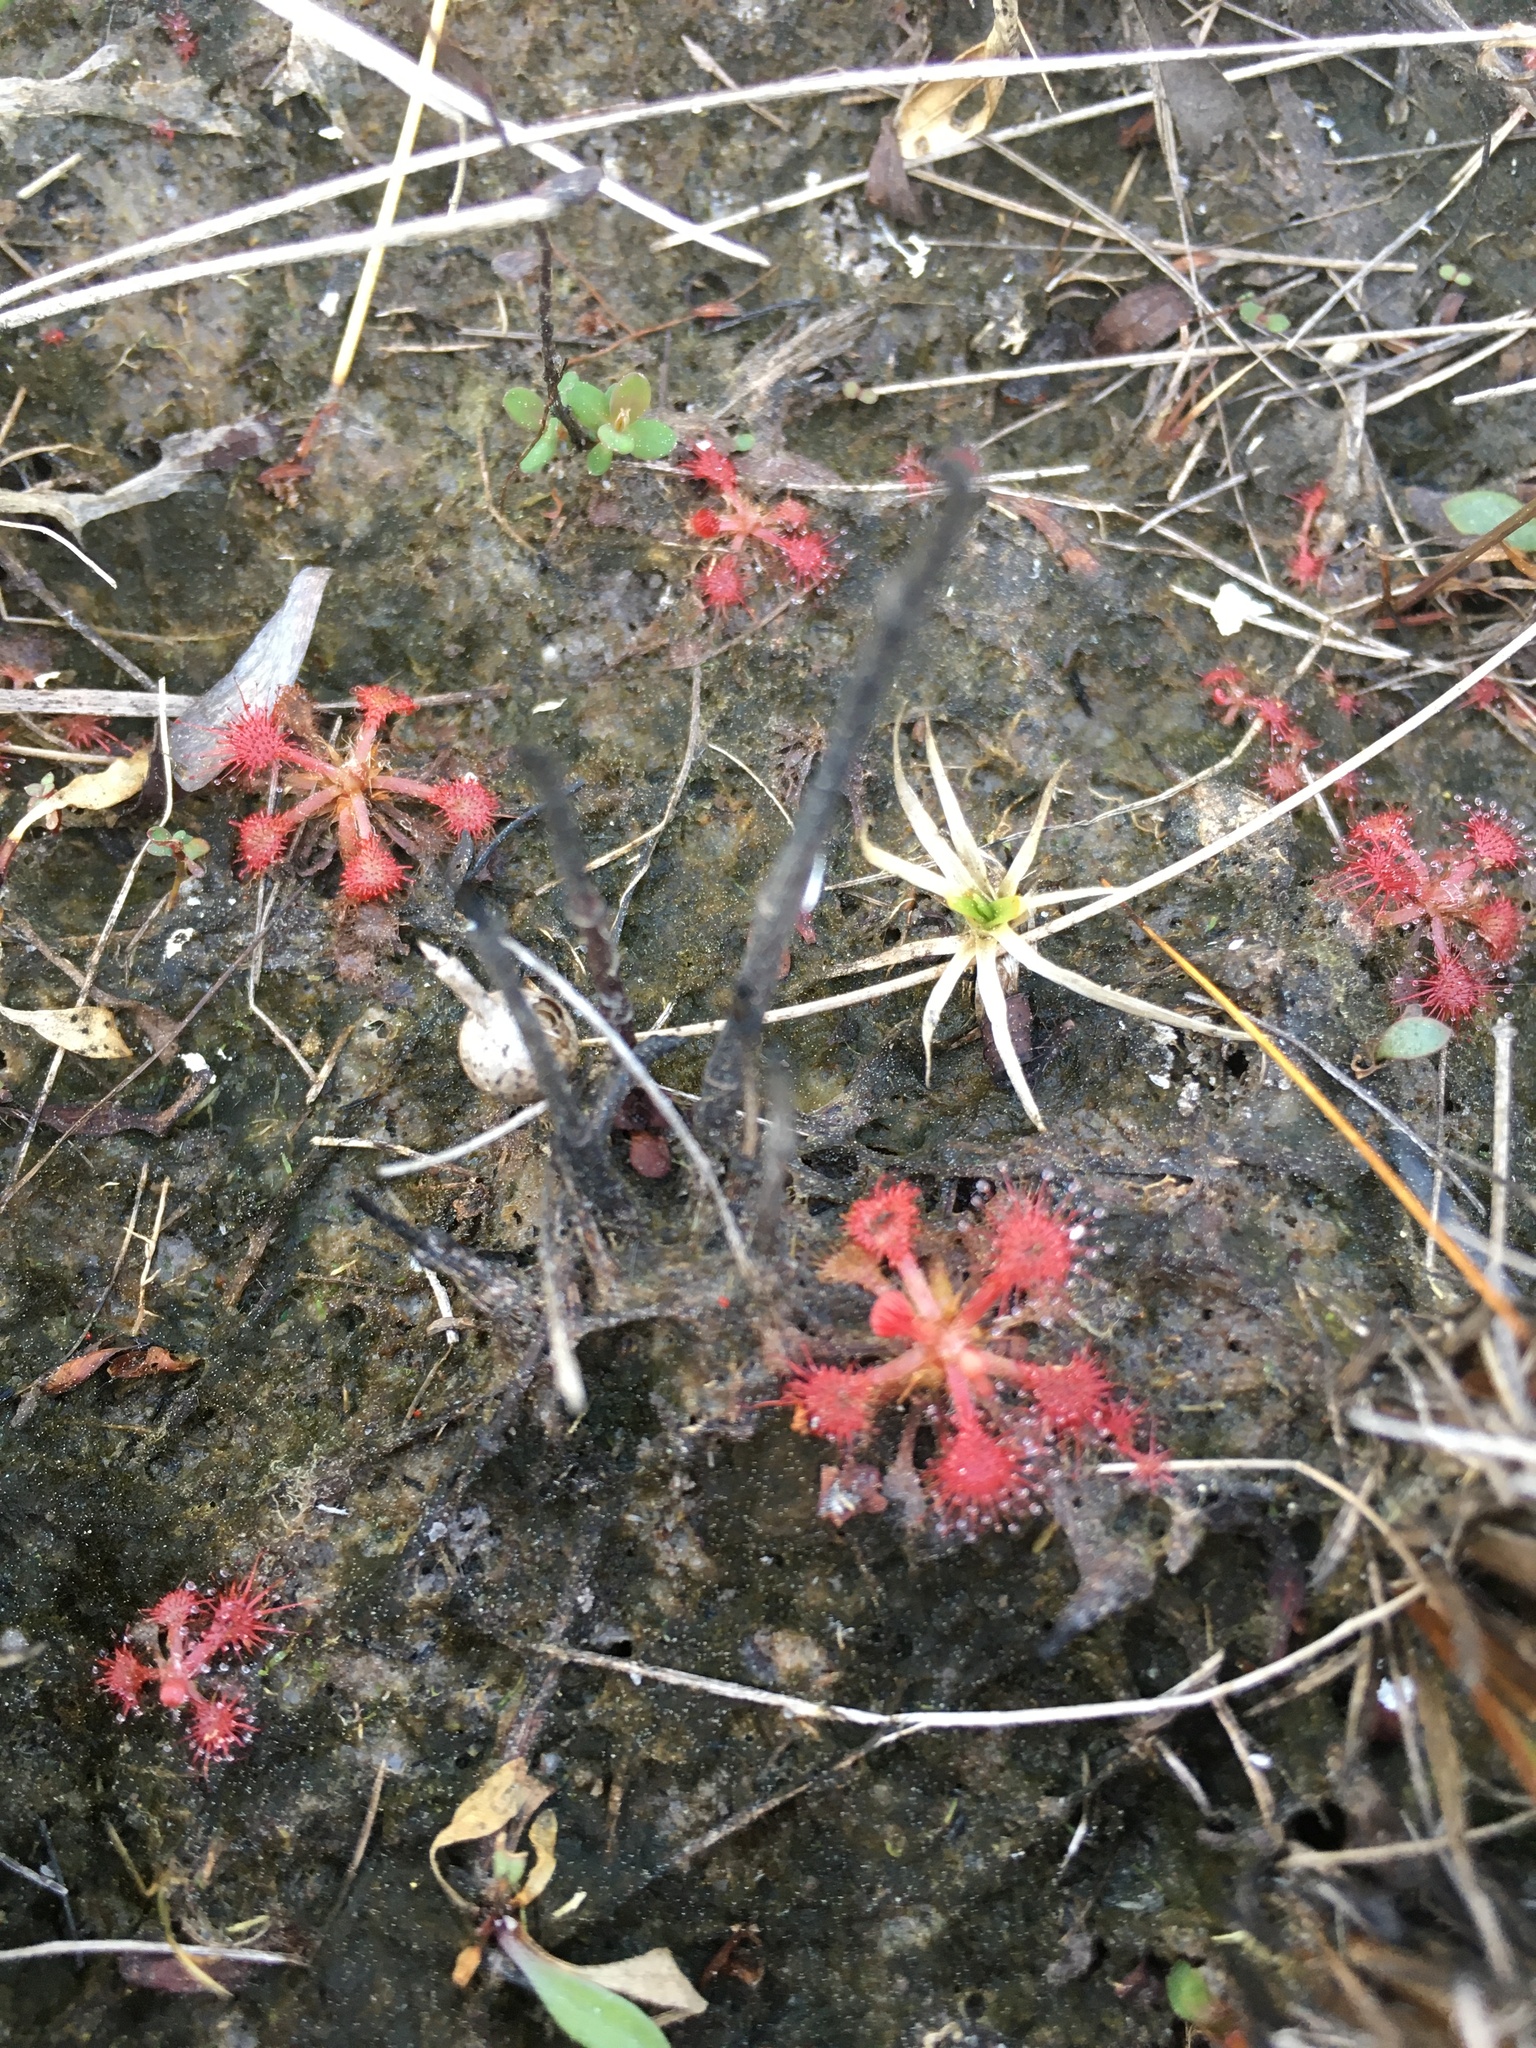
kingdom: Plantae
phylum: Tracheophyta
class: Magnoliopsida
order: Caryophyllales
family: Droseraceae
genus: Drosera
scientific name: Drosera capillaris
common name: Pink sundew
